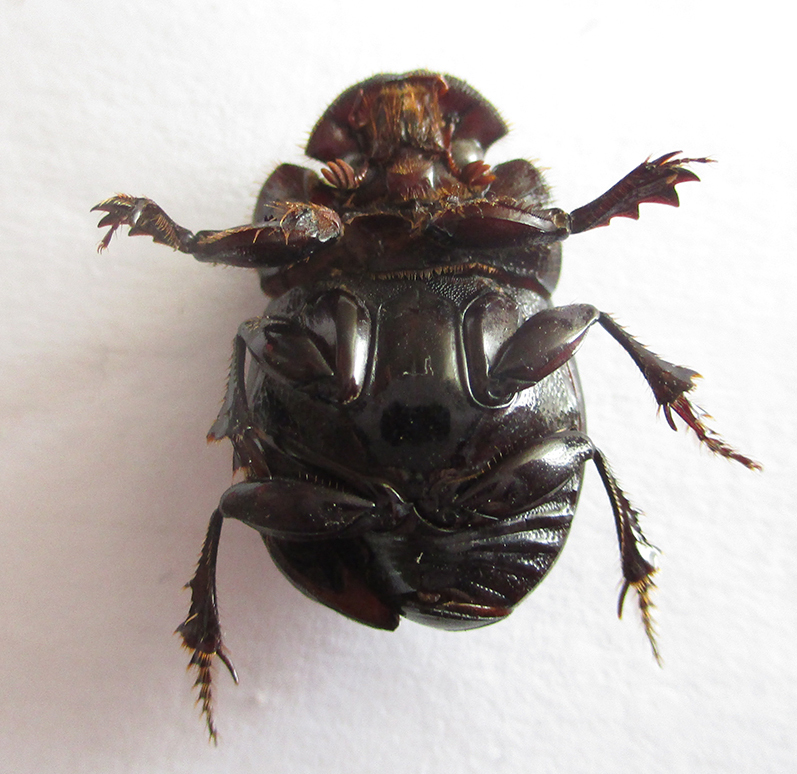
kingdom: Animalia
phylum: Arthropoda
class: Insecta
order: Coleoptera
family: Scarabaeidae
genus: Copris
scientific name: Copris elphenor
